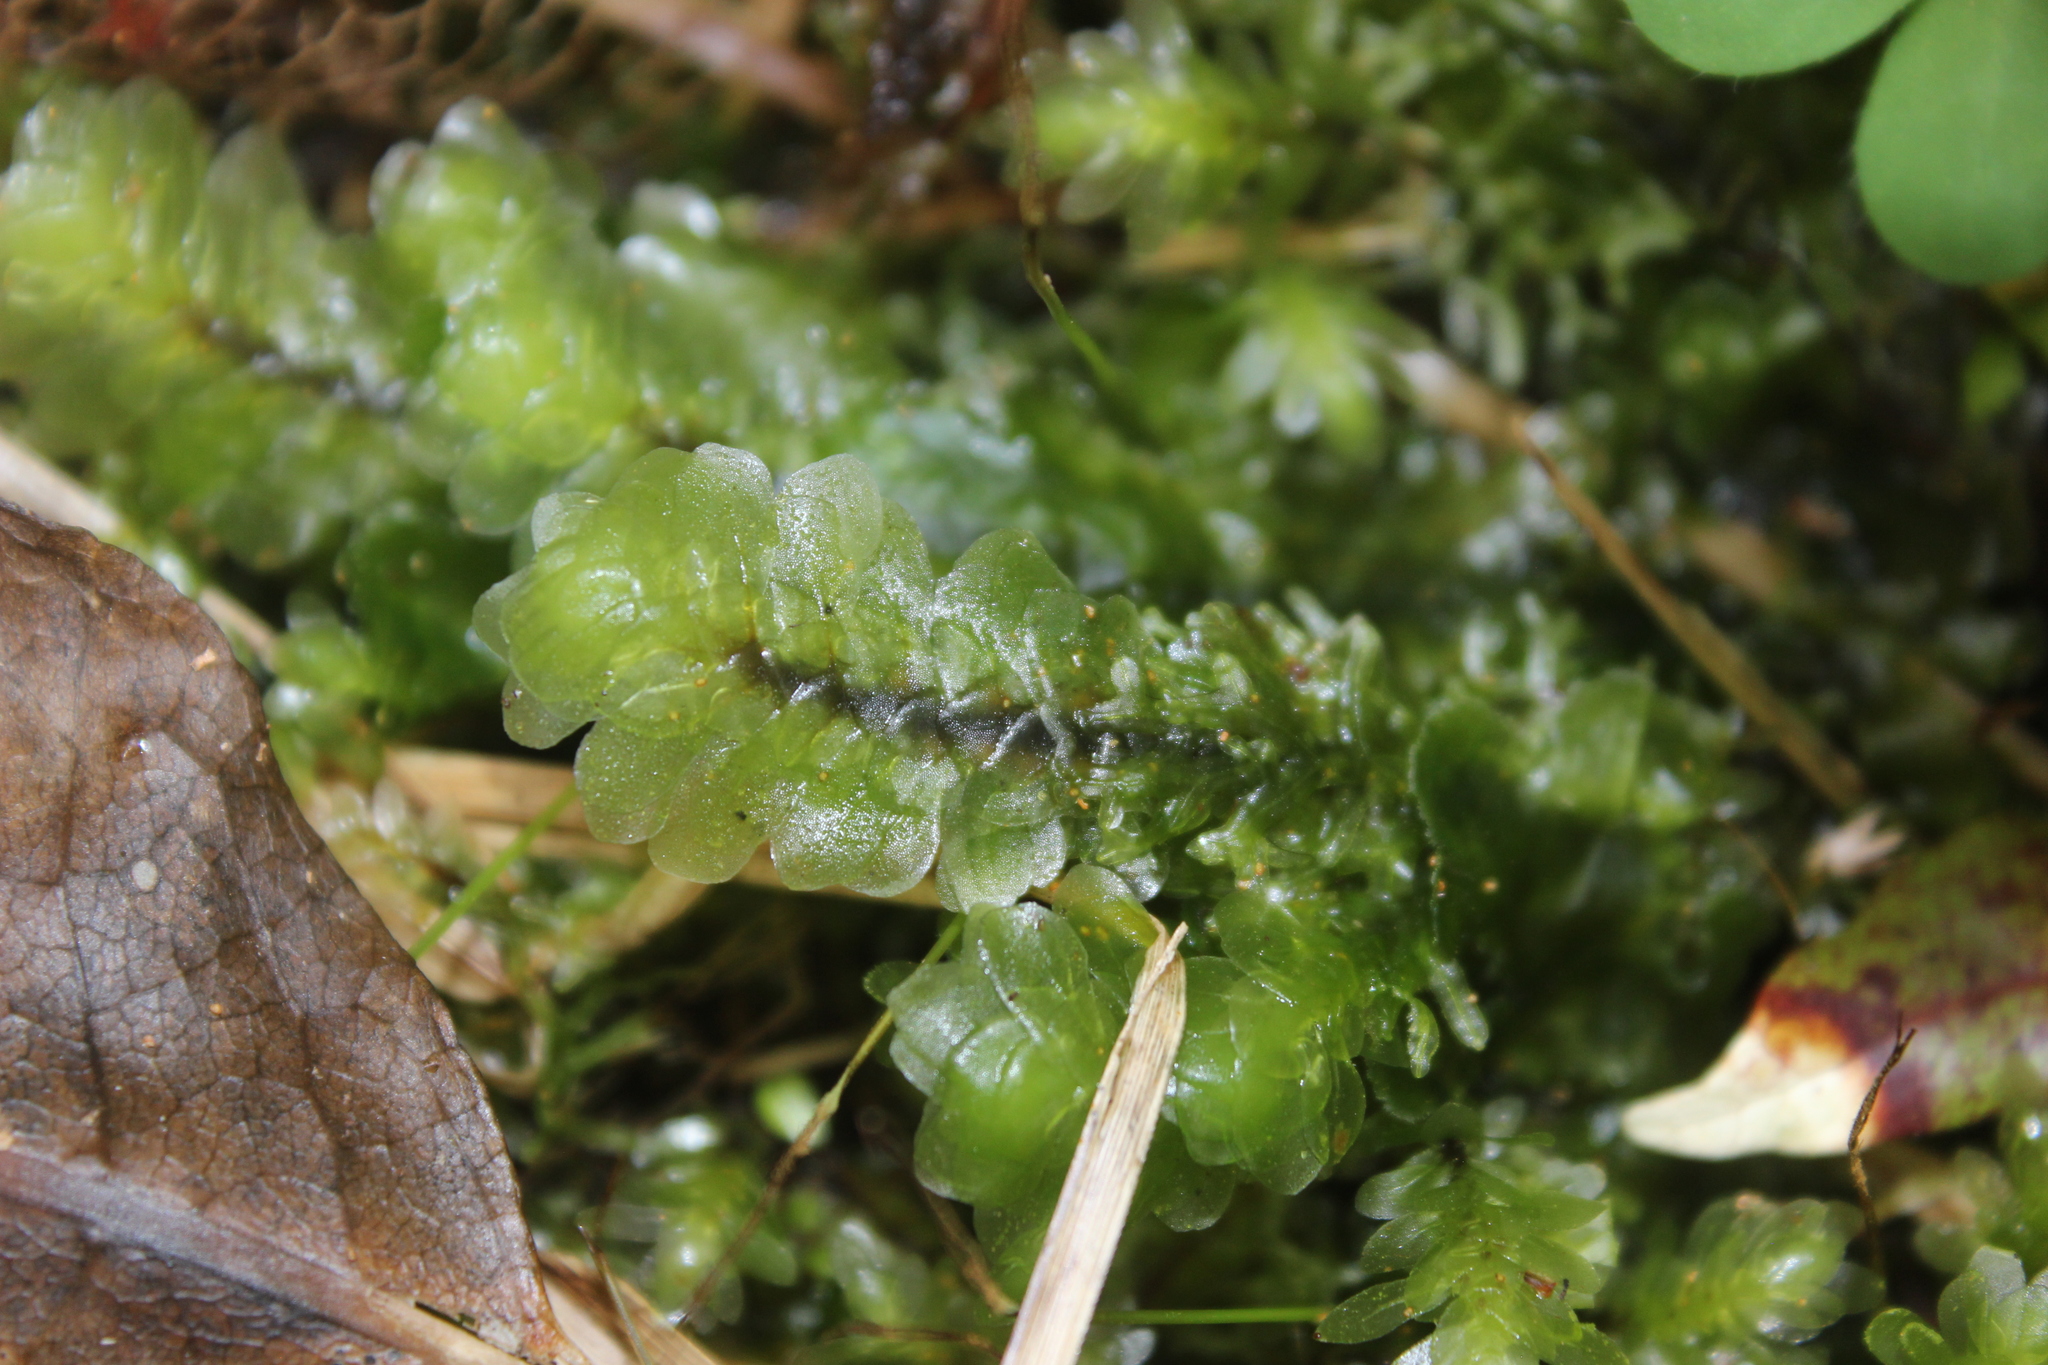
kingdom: Plantae
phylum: Bryophyta
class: Bryopsida
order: Hookeriales
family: Daltoniaceae
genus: Achrophyllum
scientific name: Achrophyllum quadrifarium
